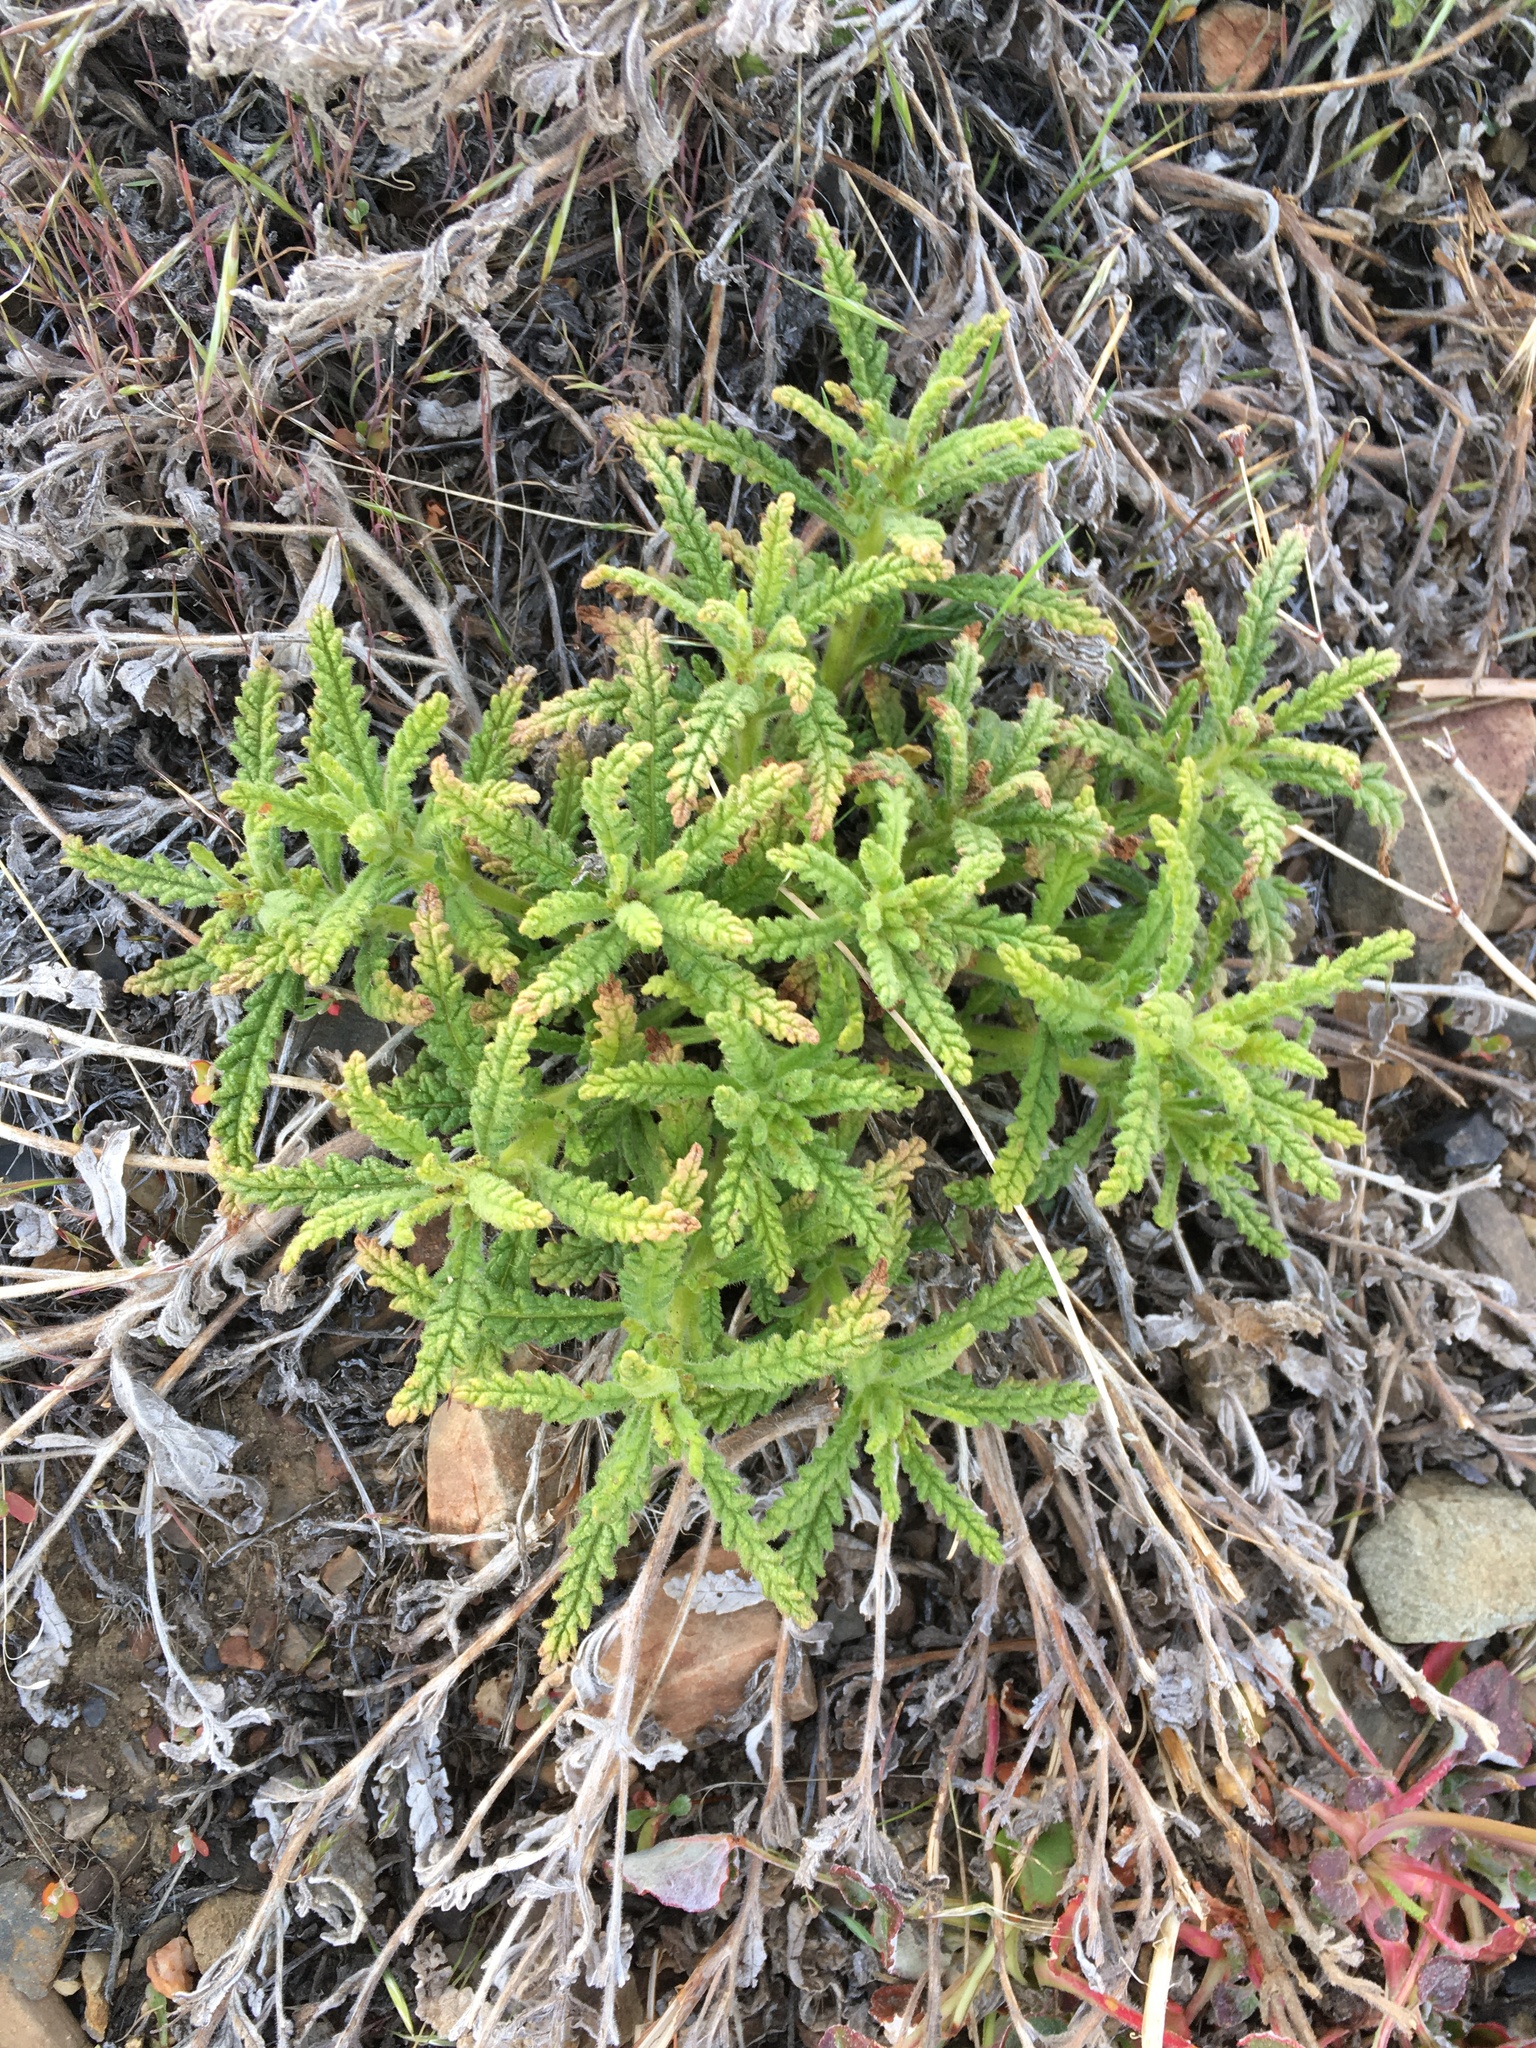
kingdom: Plantae
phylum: Tracheophyta
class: Magnoliopsida
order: Boraginales
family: Namaceae
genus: Nama
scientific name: Nama rothrockii
